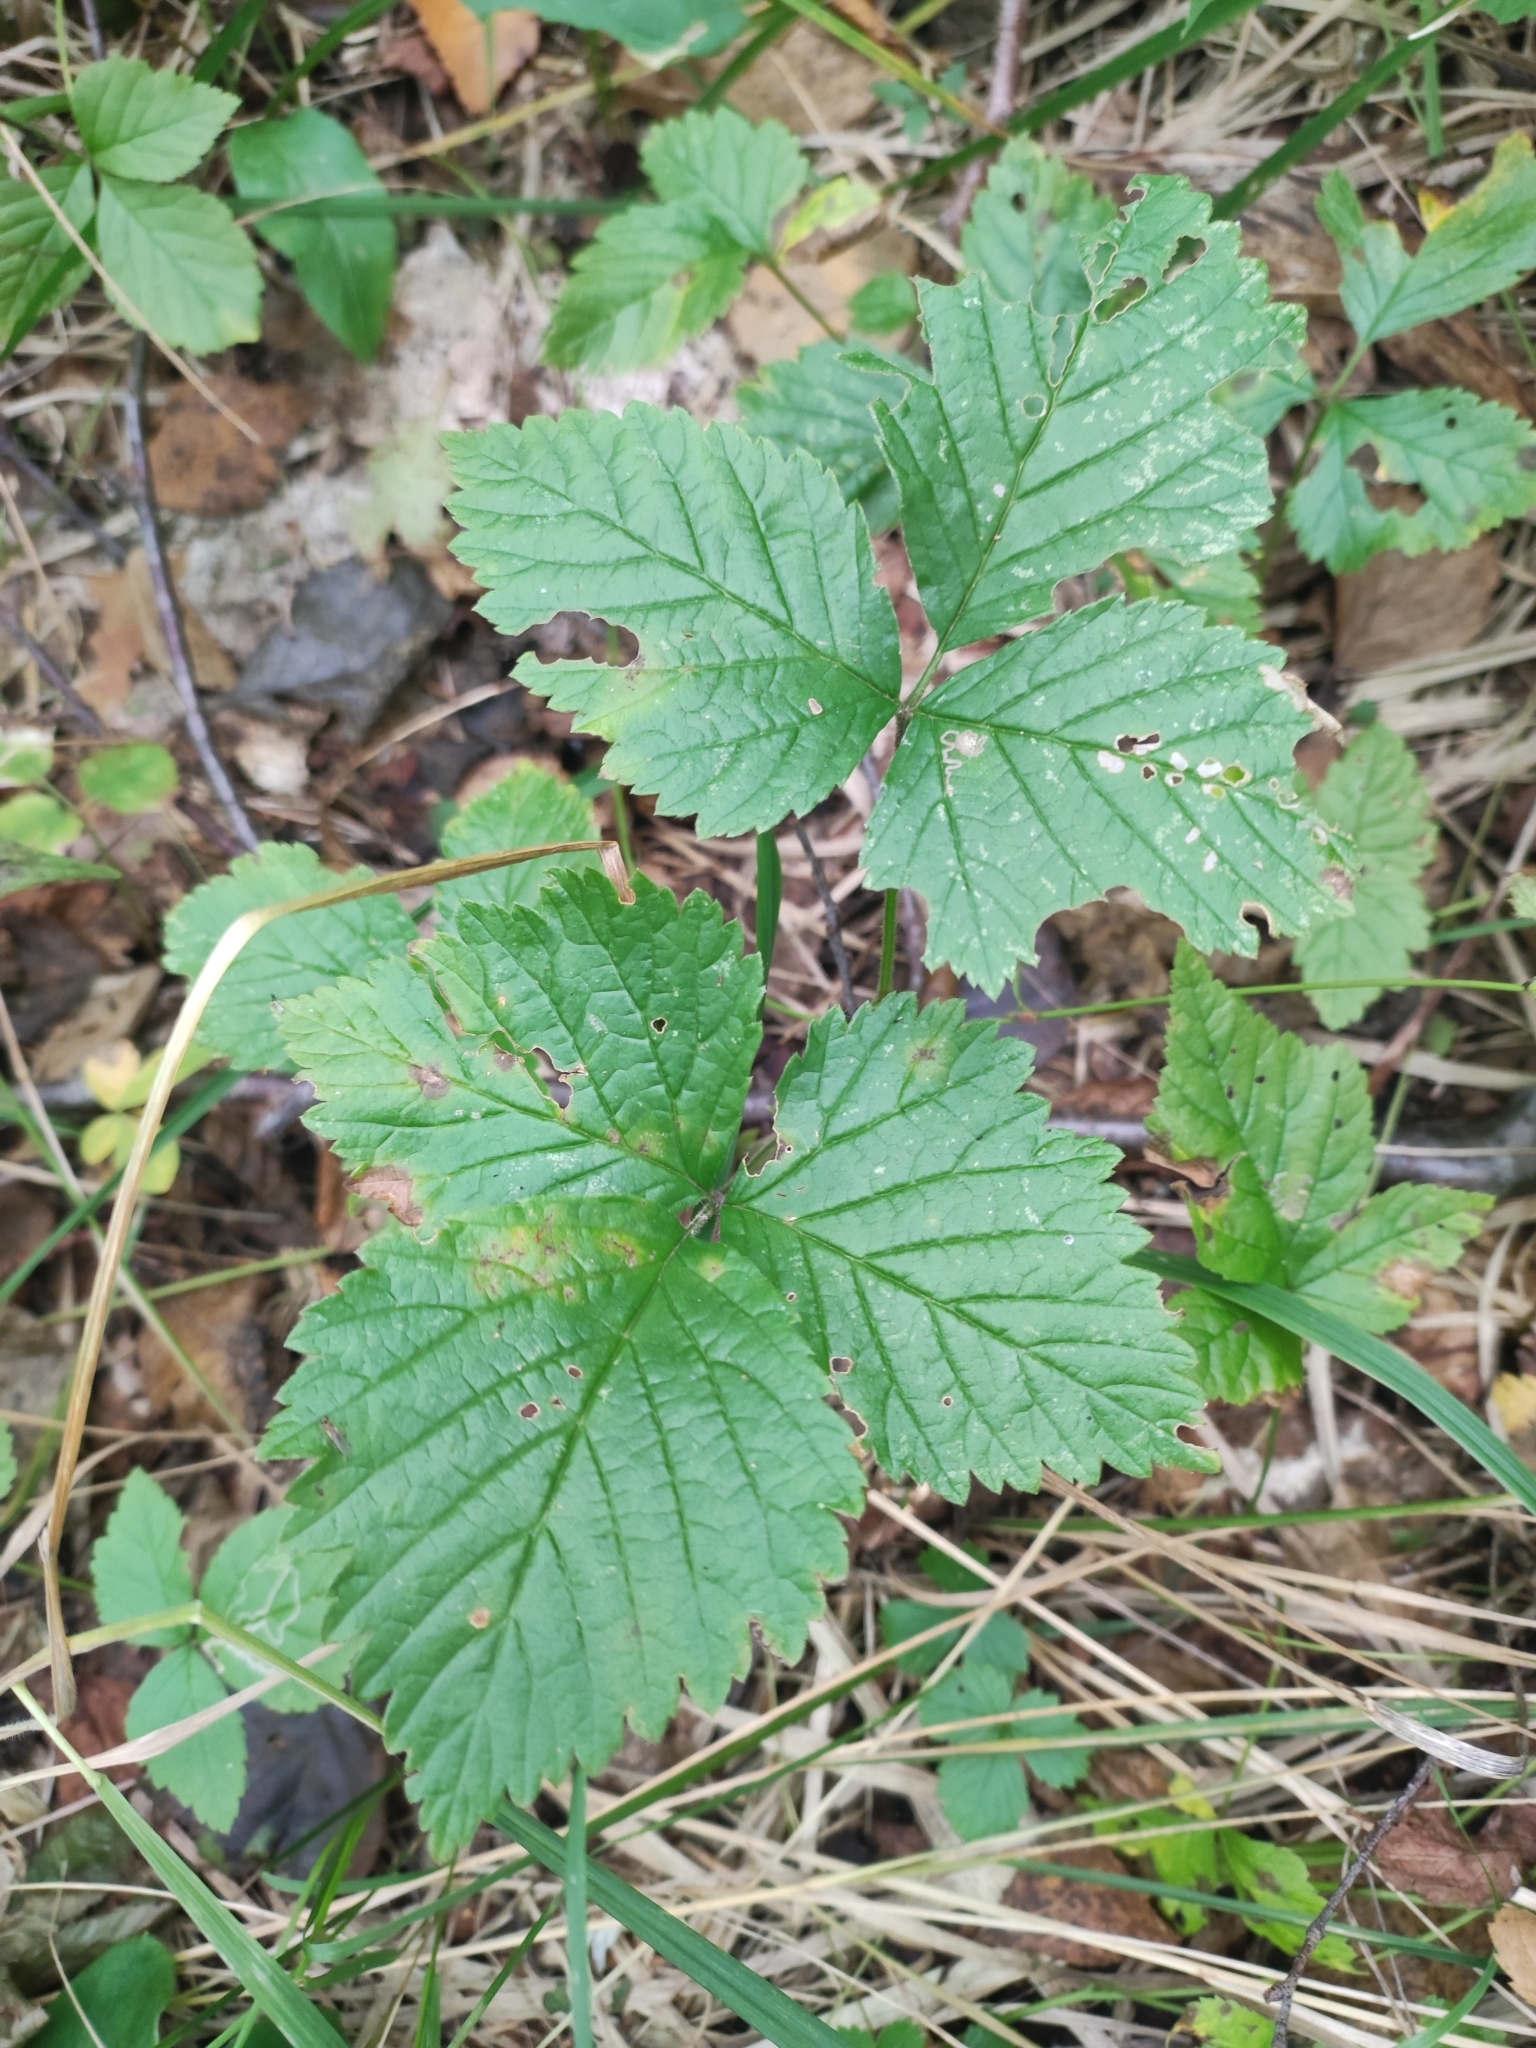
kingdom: Plantae
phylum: Tracheophyta
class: Magnoliopsida
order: Rosales
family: Rosaceae
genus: Rubus
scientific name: Rubus saxatilis
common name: Stone bramble
